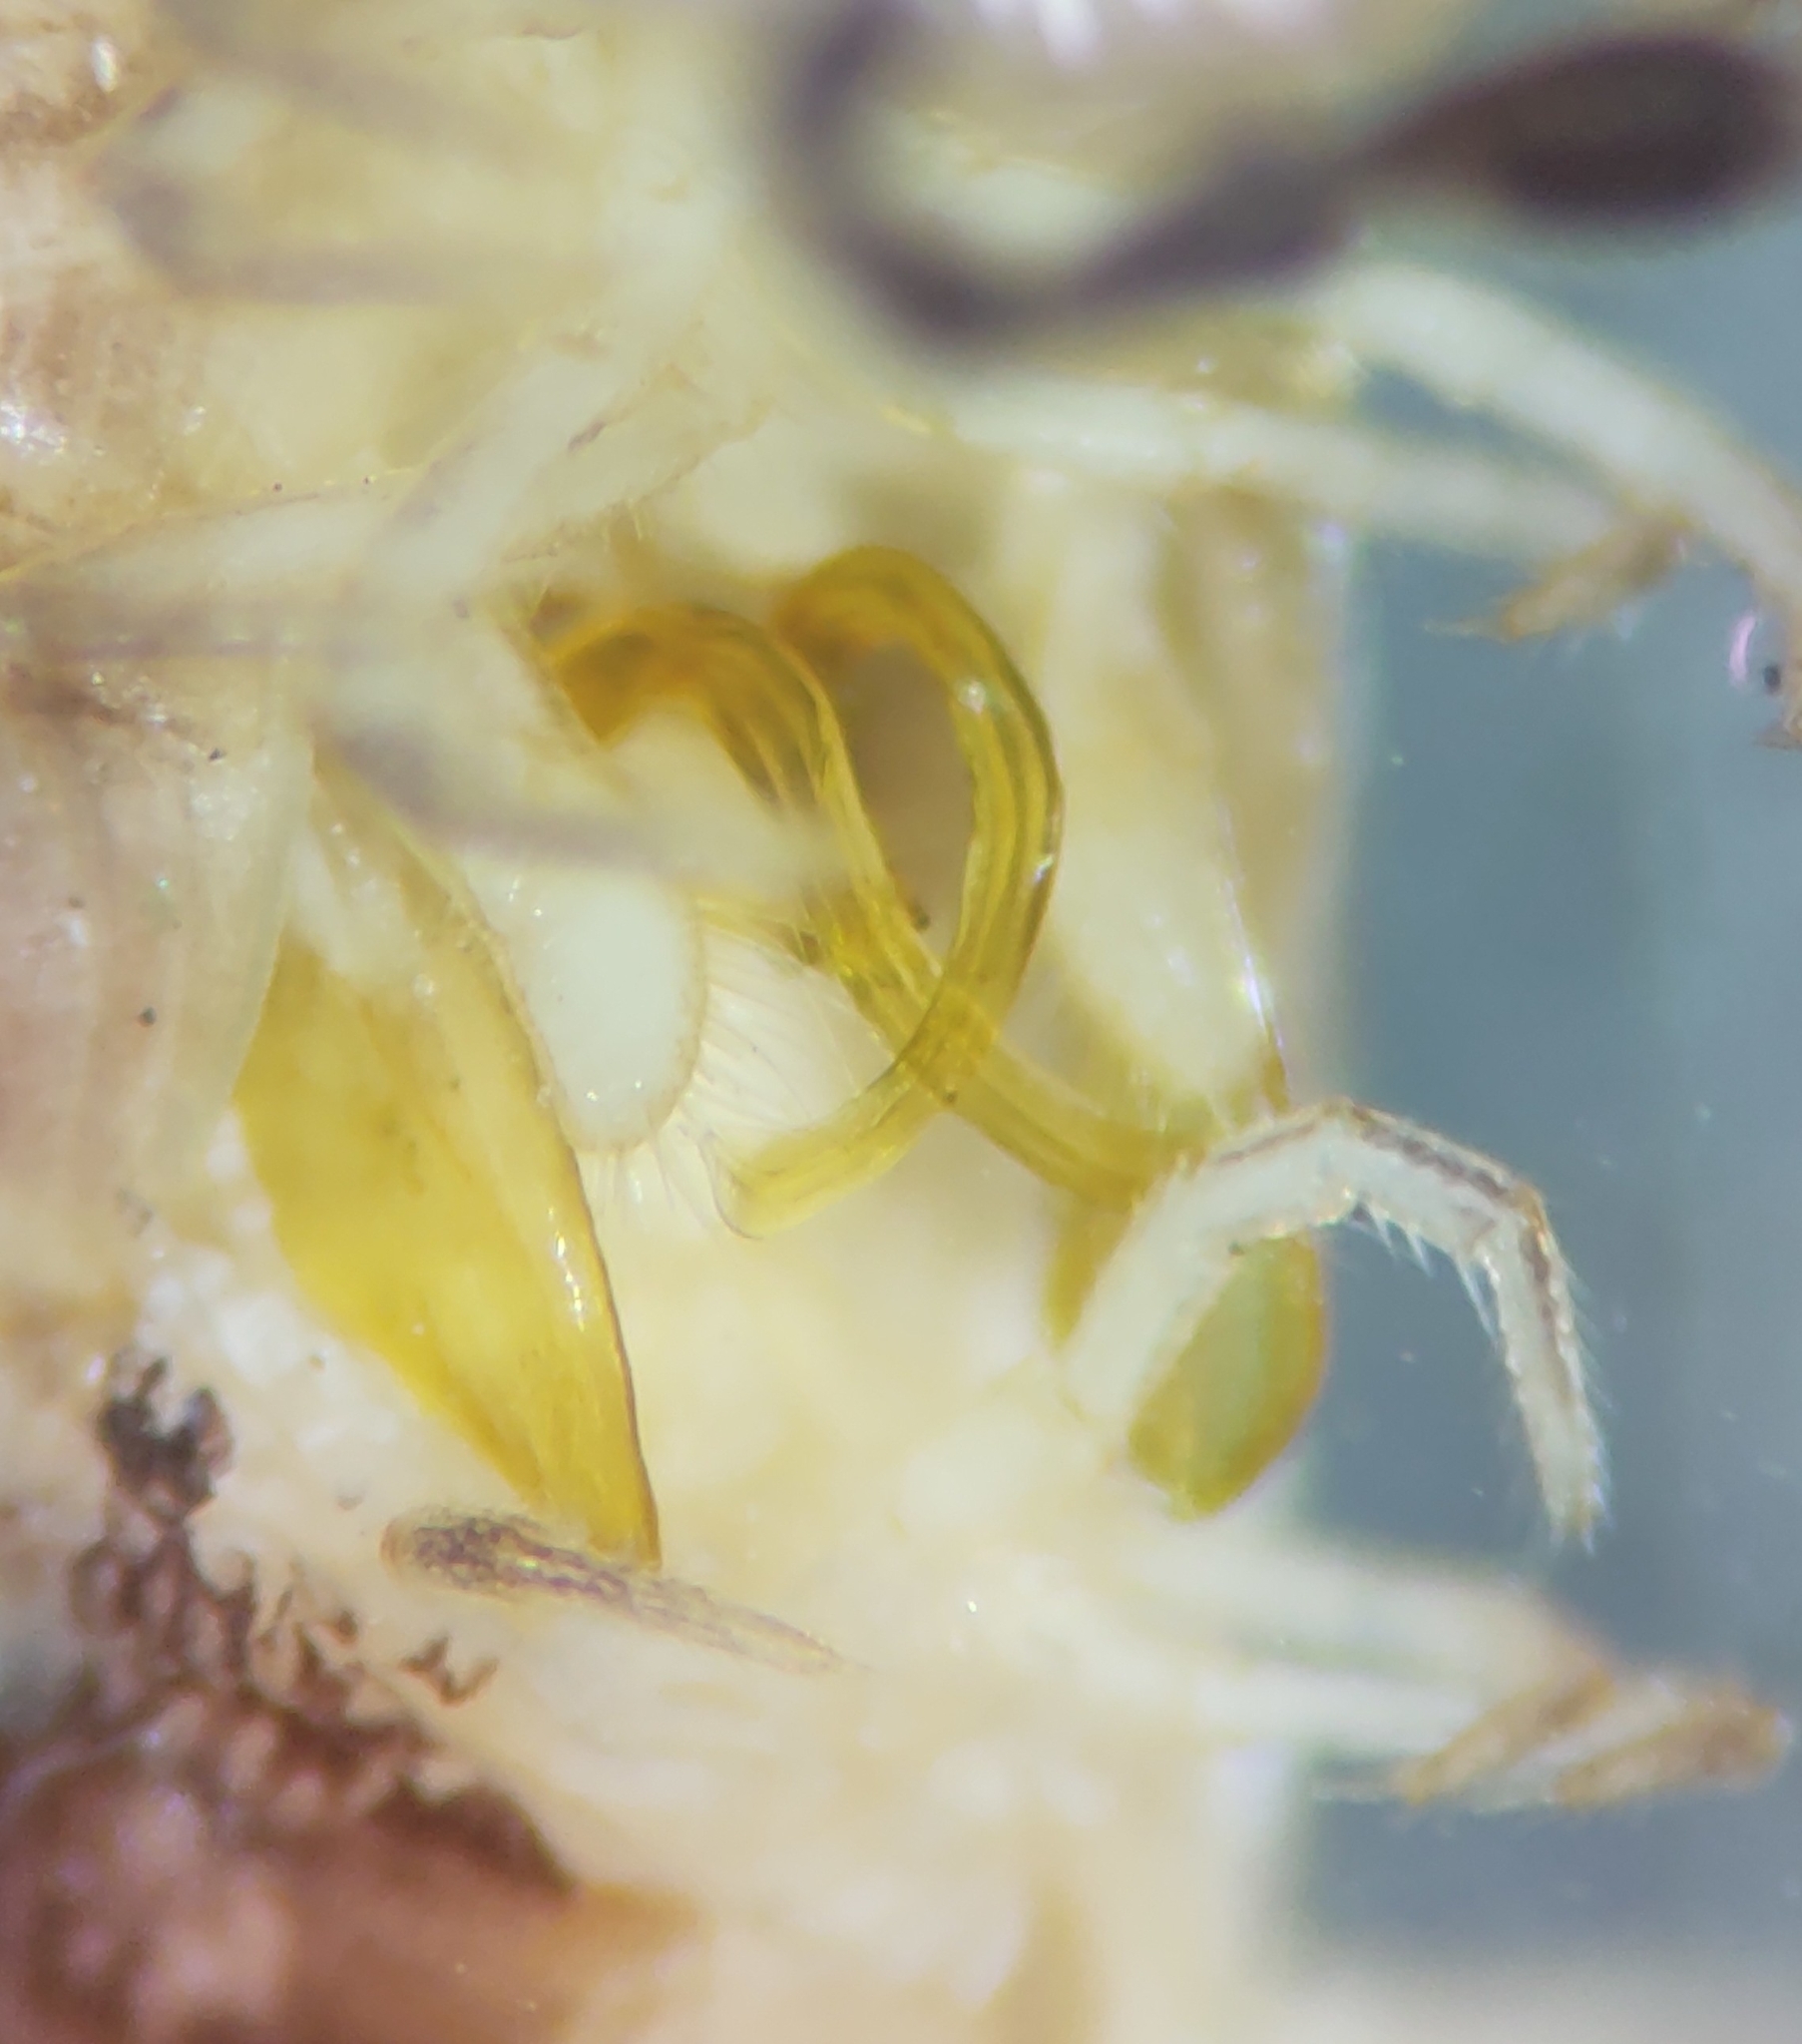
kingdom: Animalia
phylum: Arthropoda
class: Diplopoda
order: Julida
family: Parajulidae
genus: Oriulus
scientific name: Oriulus venustus
